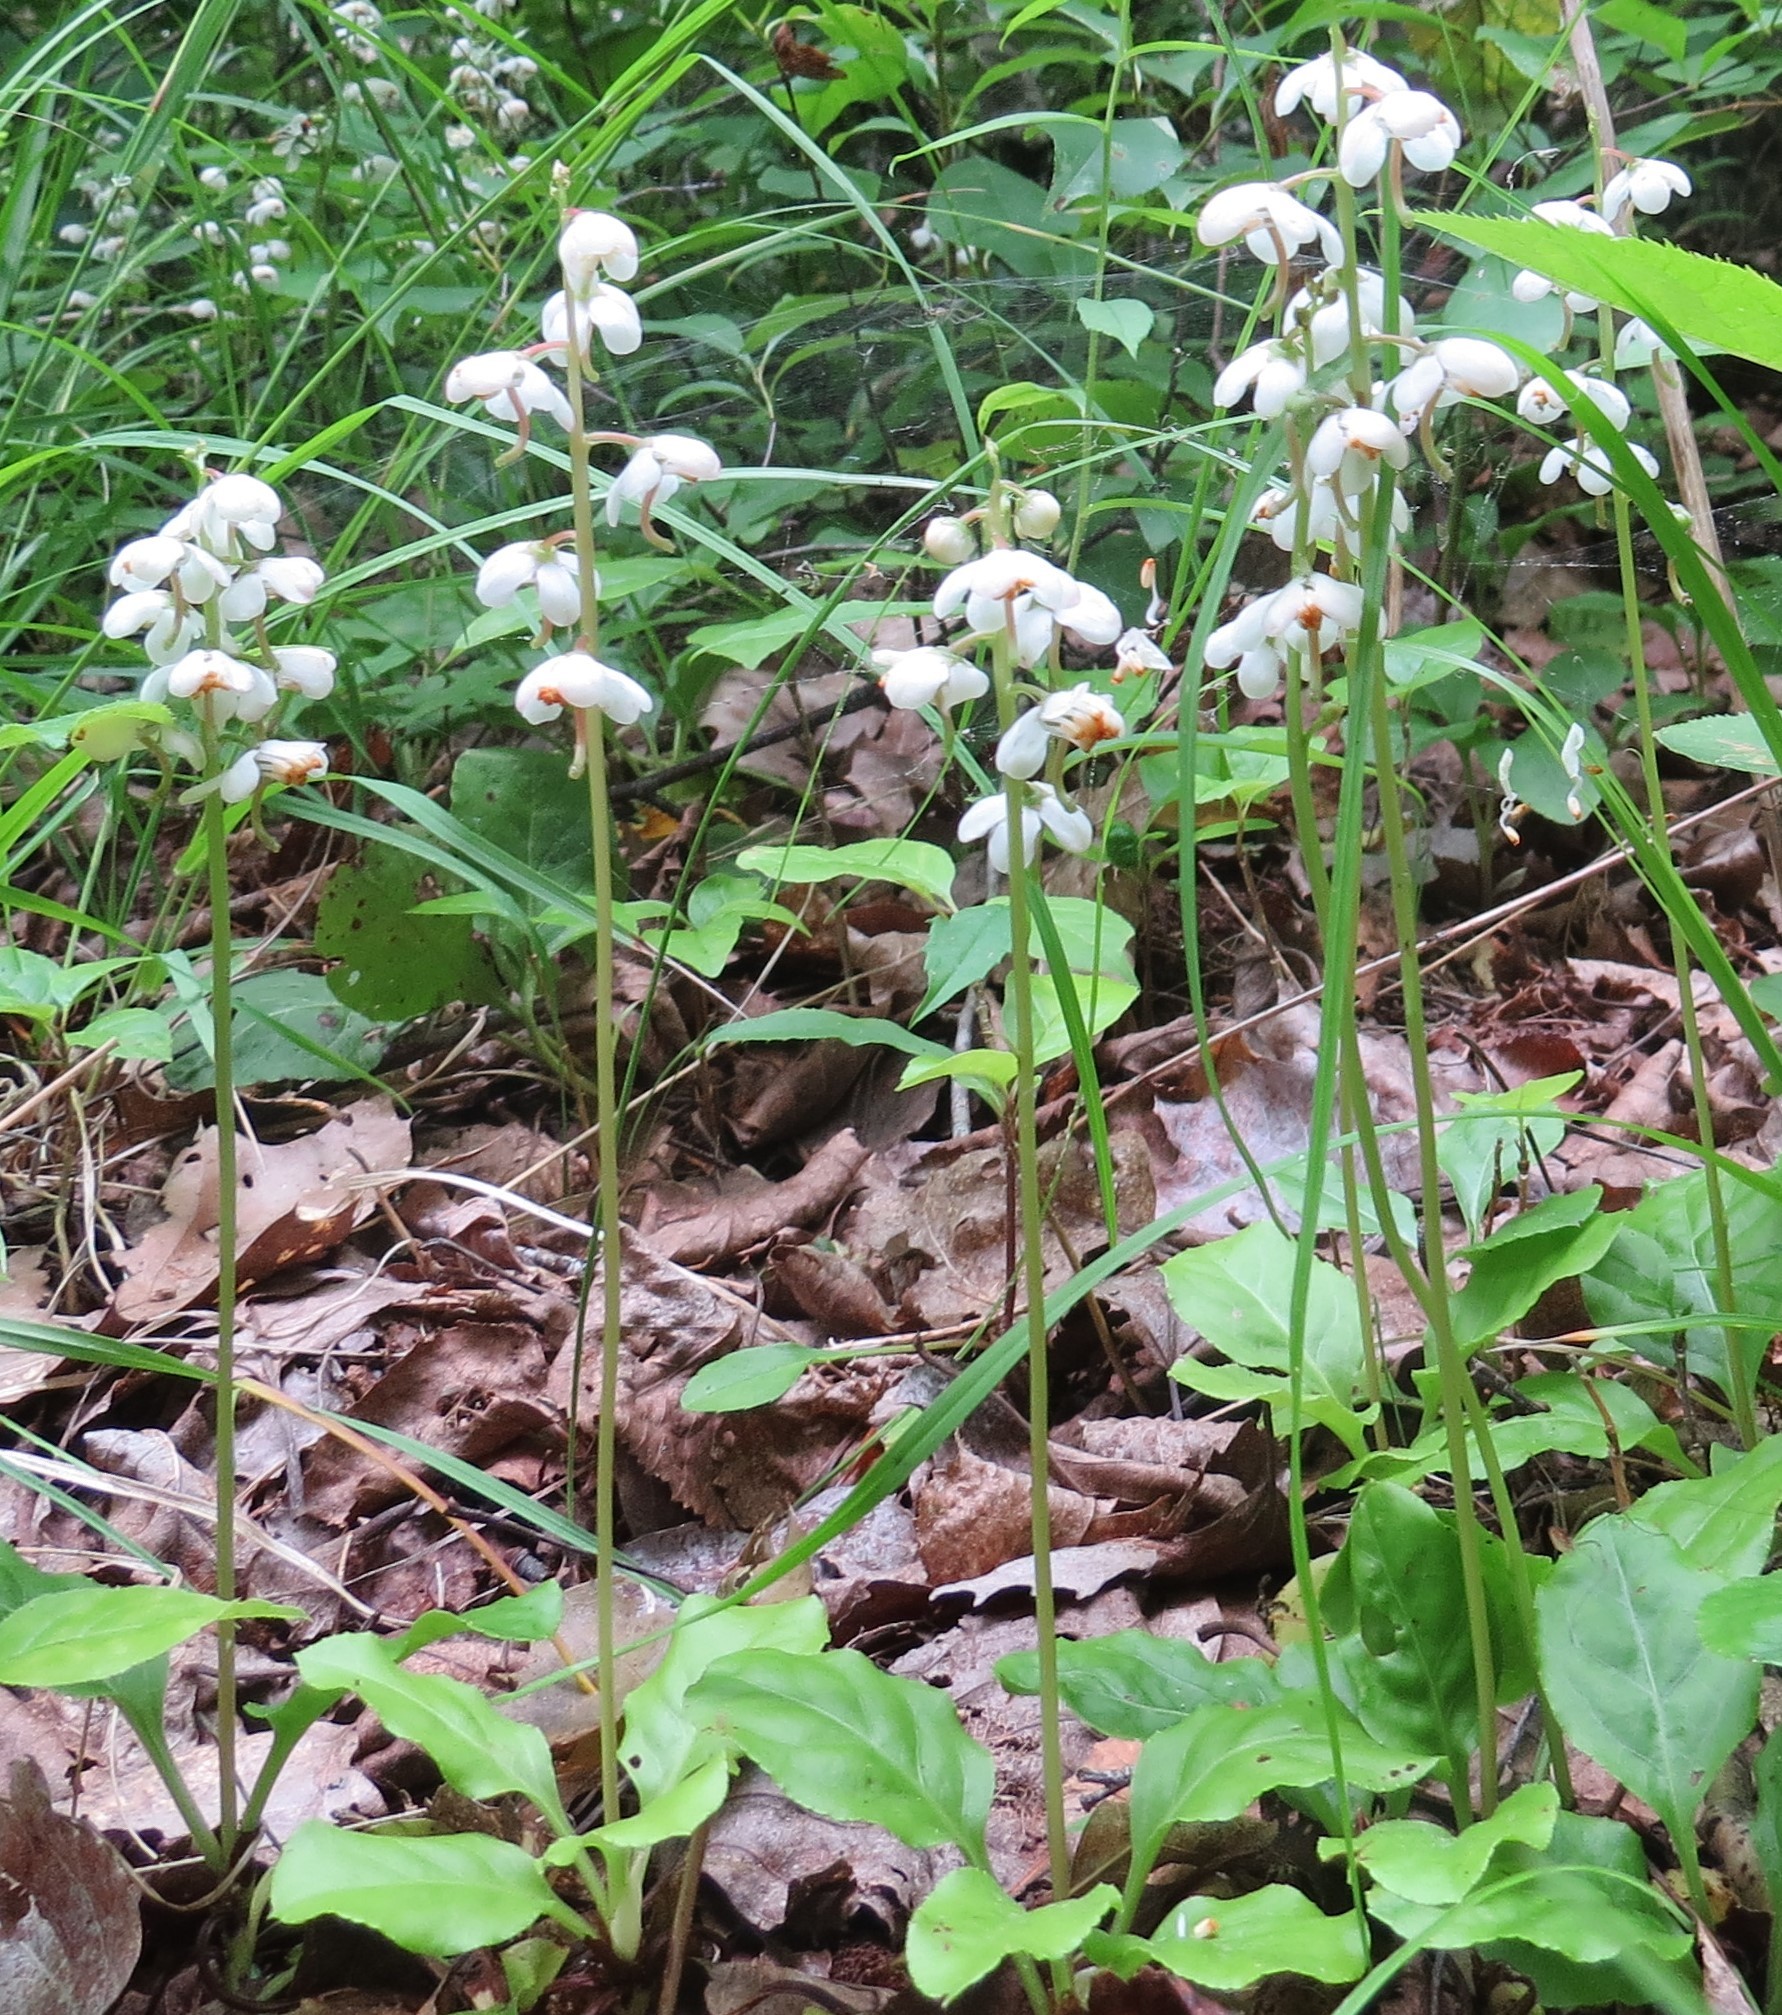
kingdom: Plantae
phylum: Tracheophyta
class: Magnoliopsida
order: Ericales
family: Ericaceae
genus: Pyrola
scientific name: Pyrola elliptica
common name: Shinleaf
